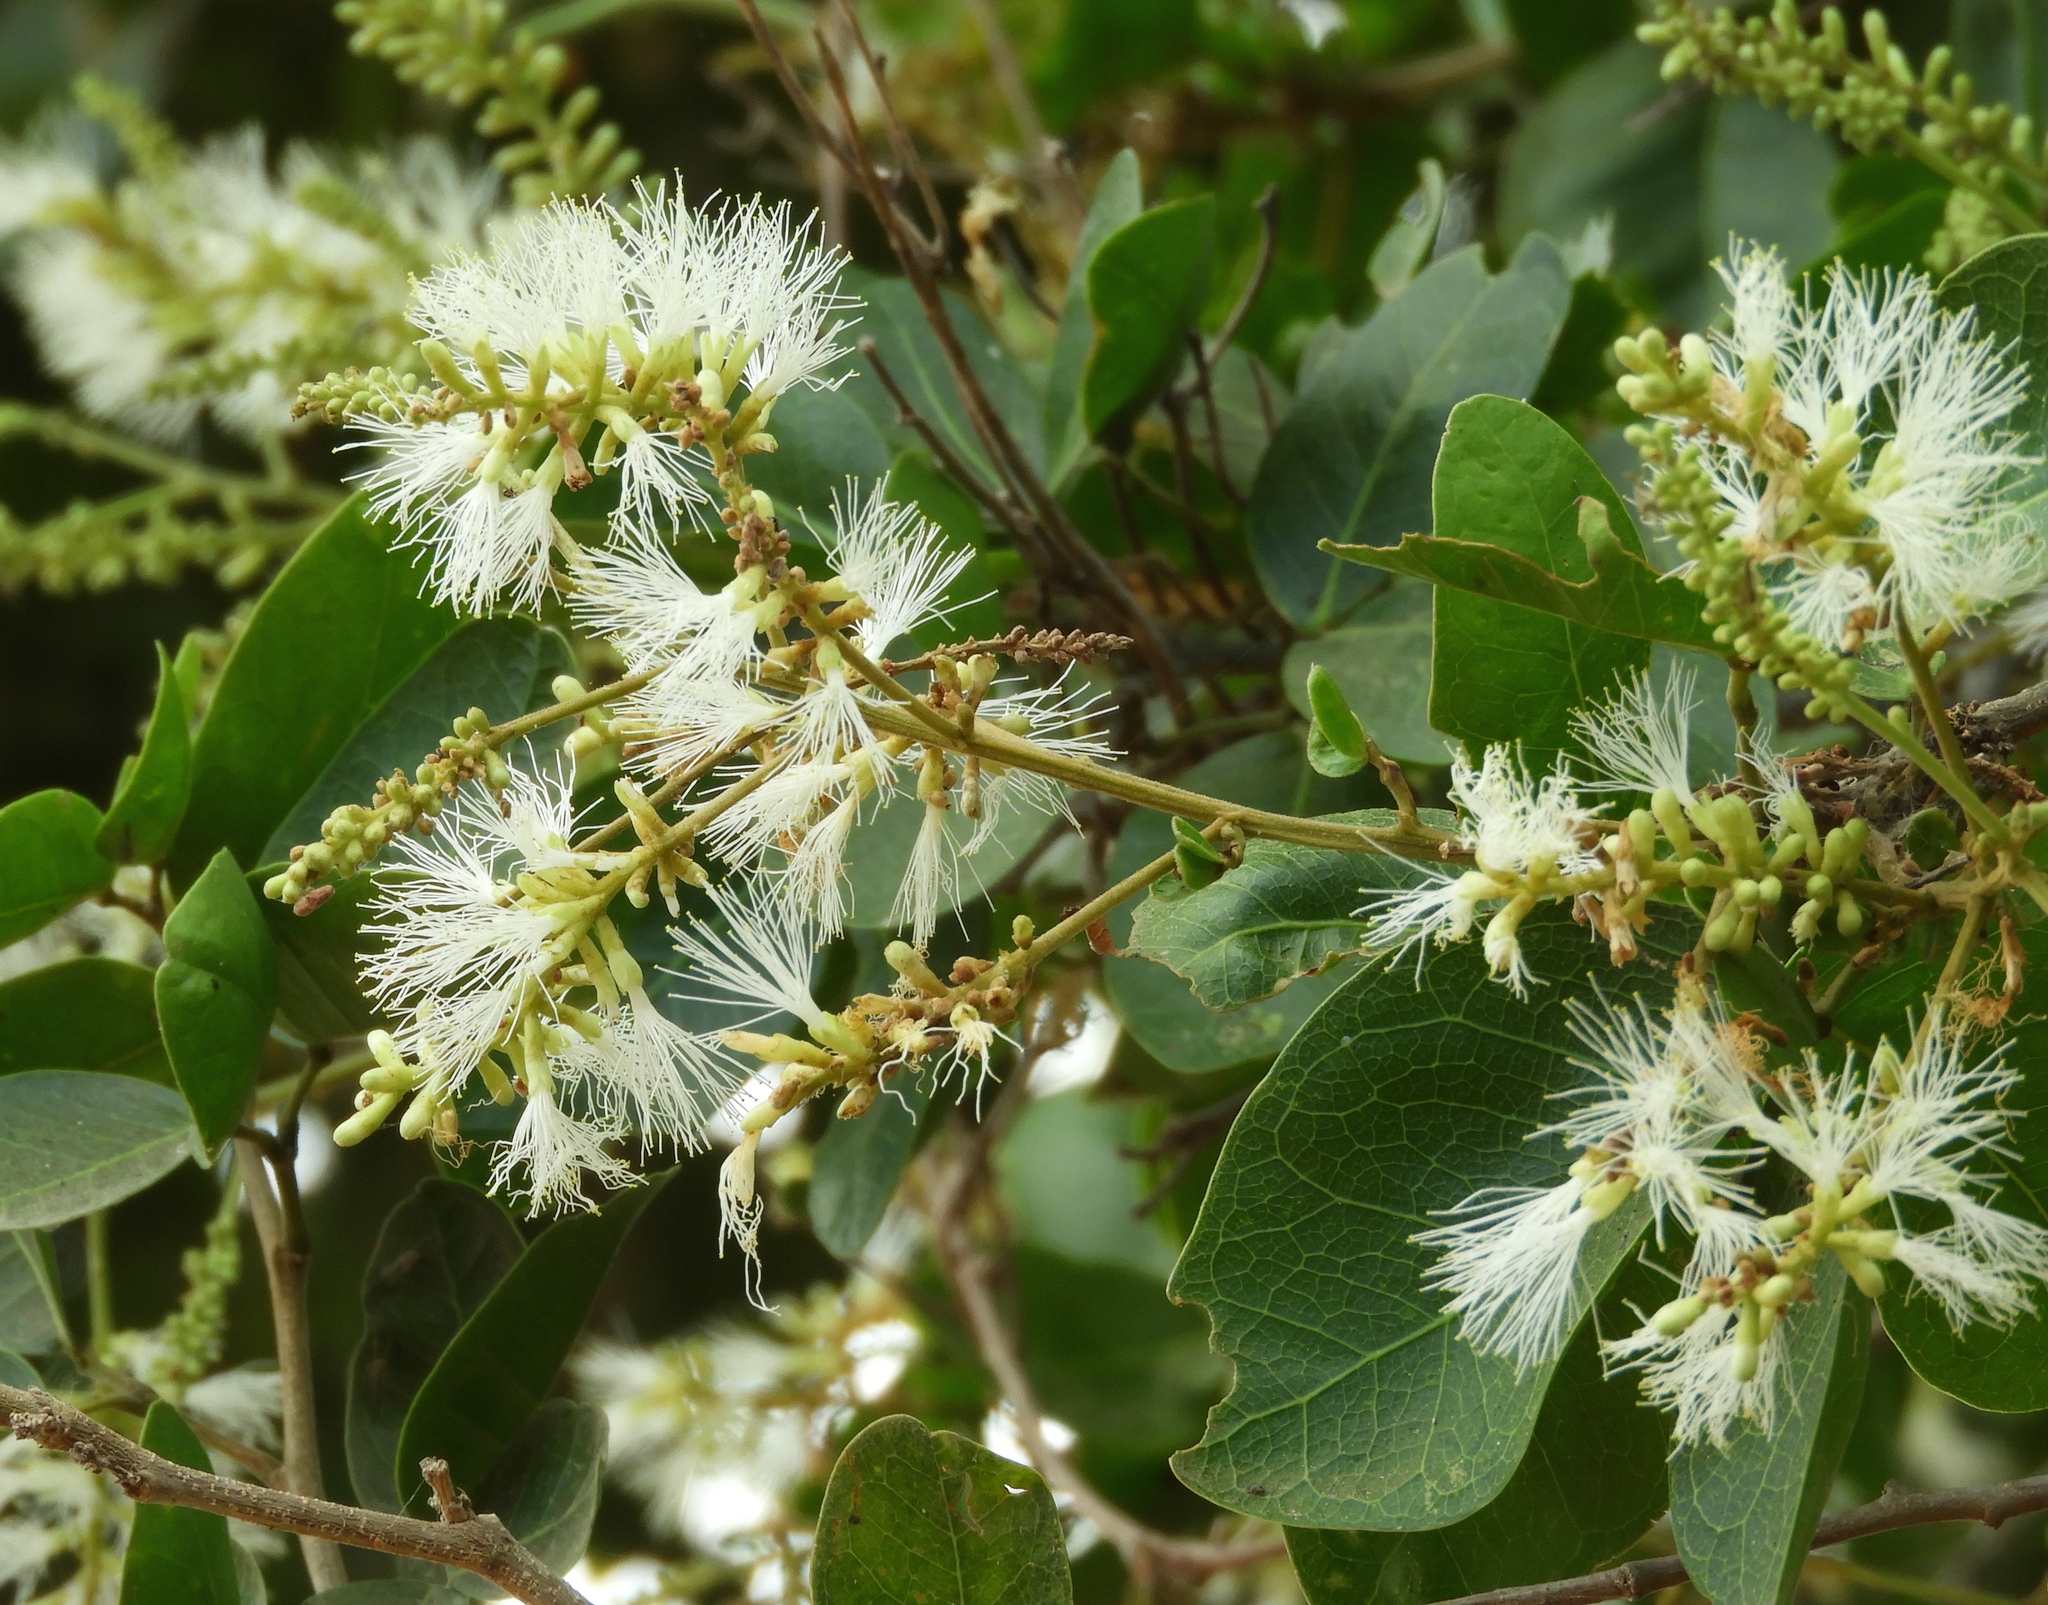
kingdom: Plantae
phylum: Tracheophyta
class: Magnoliopsida
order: Fabales
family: Fabaceae
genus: Pithecellobium
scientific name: Pithecellobium lanceolatum
